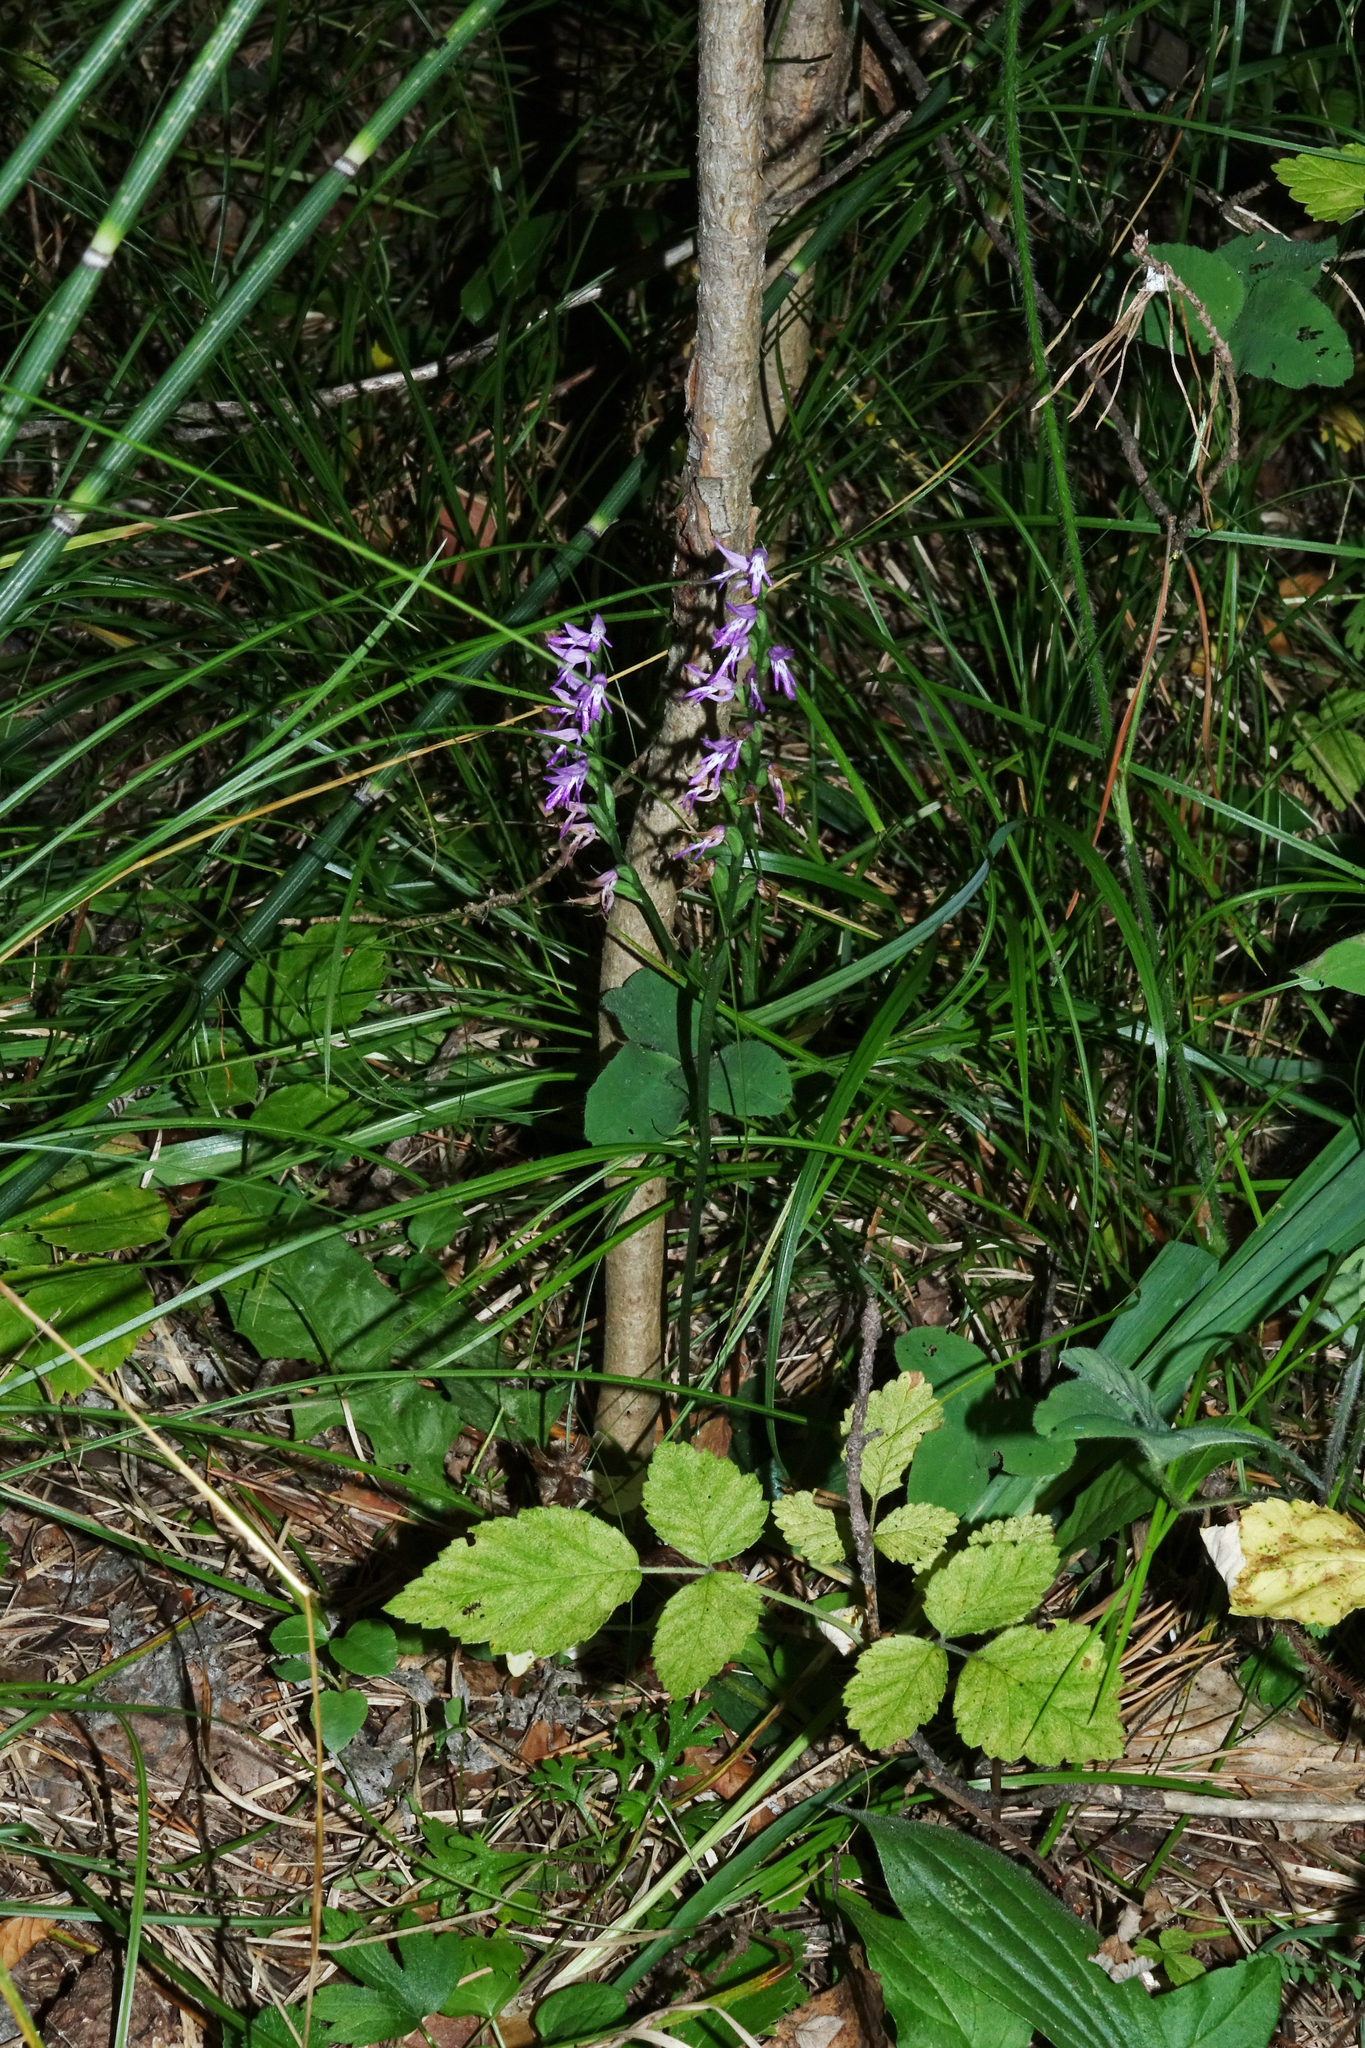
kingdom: Plantae
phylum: Tracheophyta
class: Liliopsida
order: Asparagales
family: Orchidaceae
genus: Hemipilia
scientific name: Hemipilia cucullata
